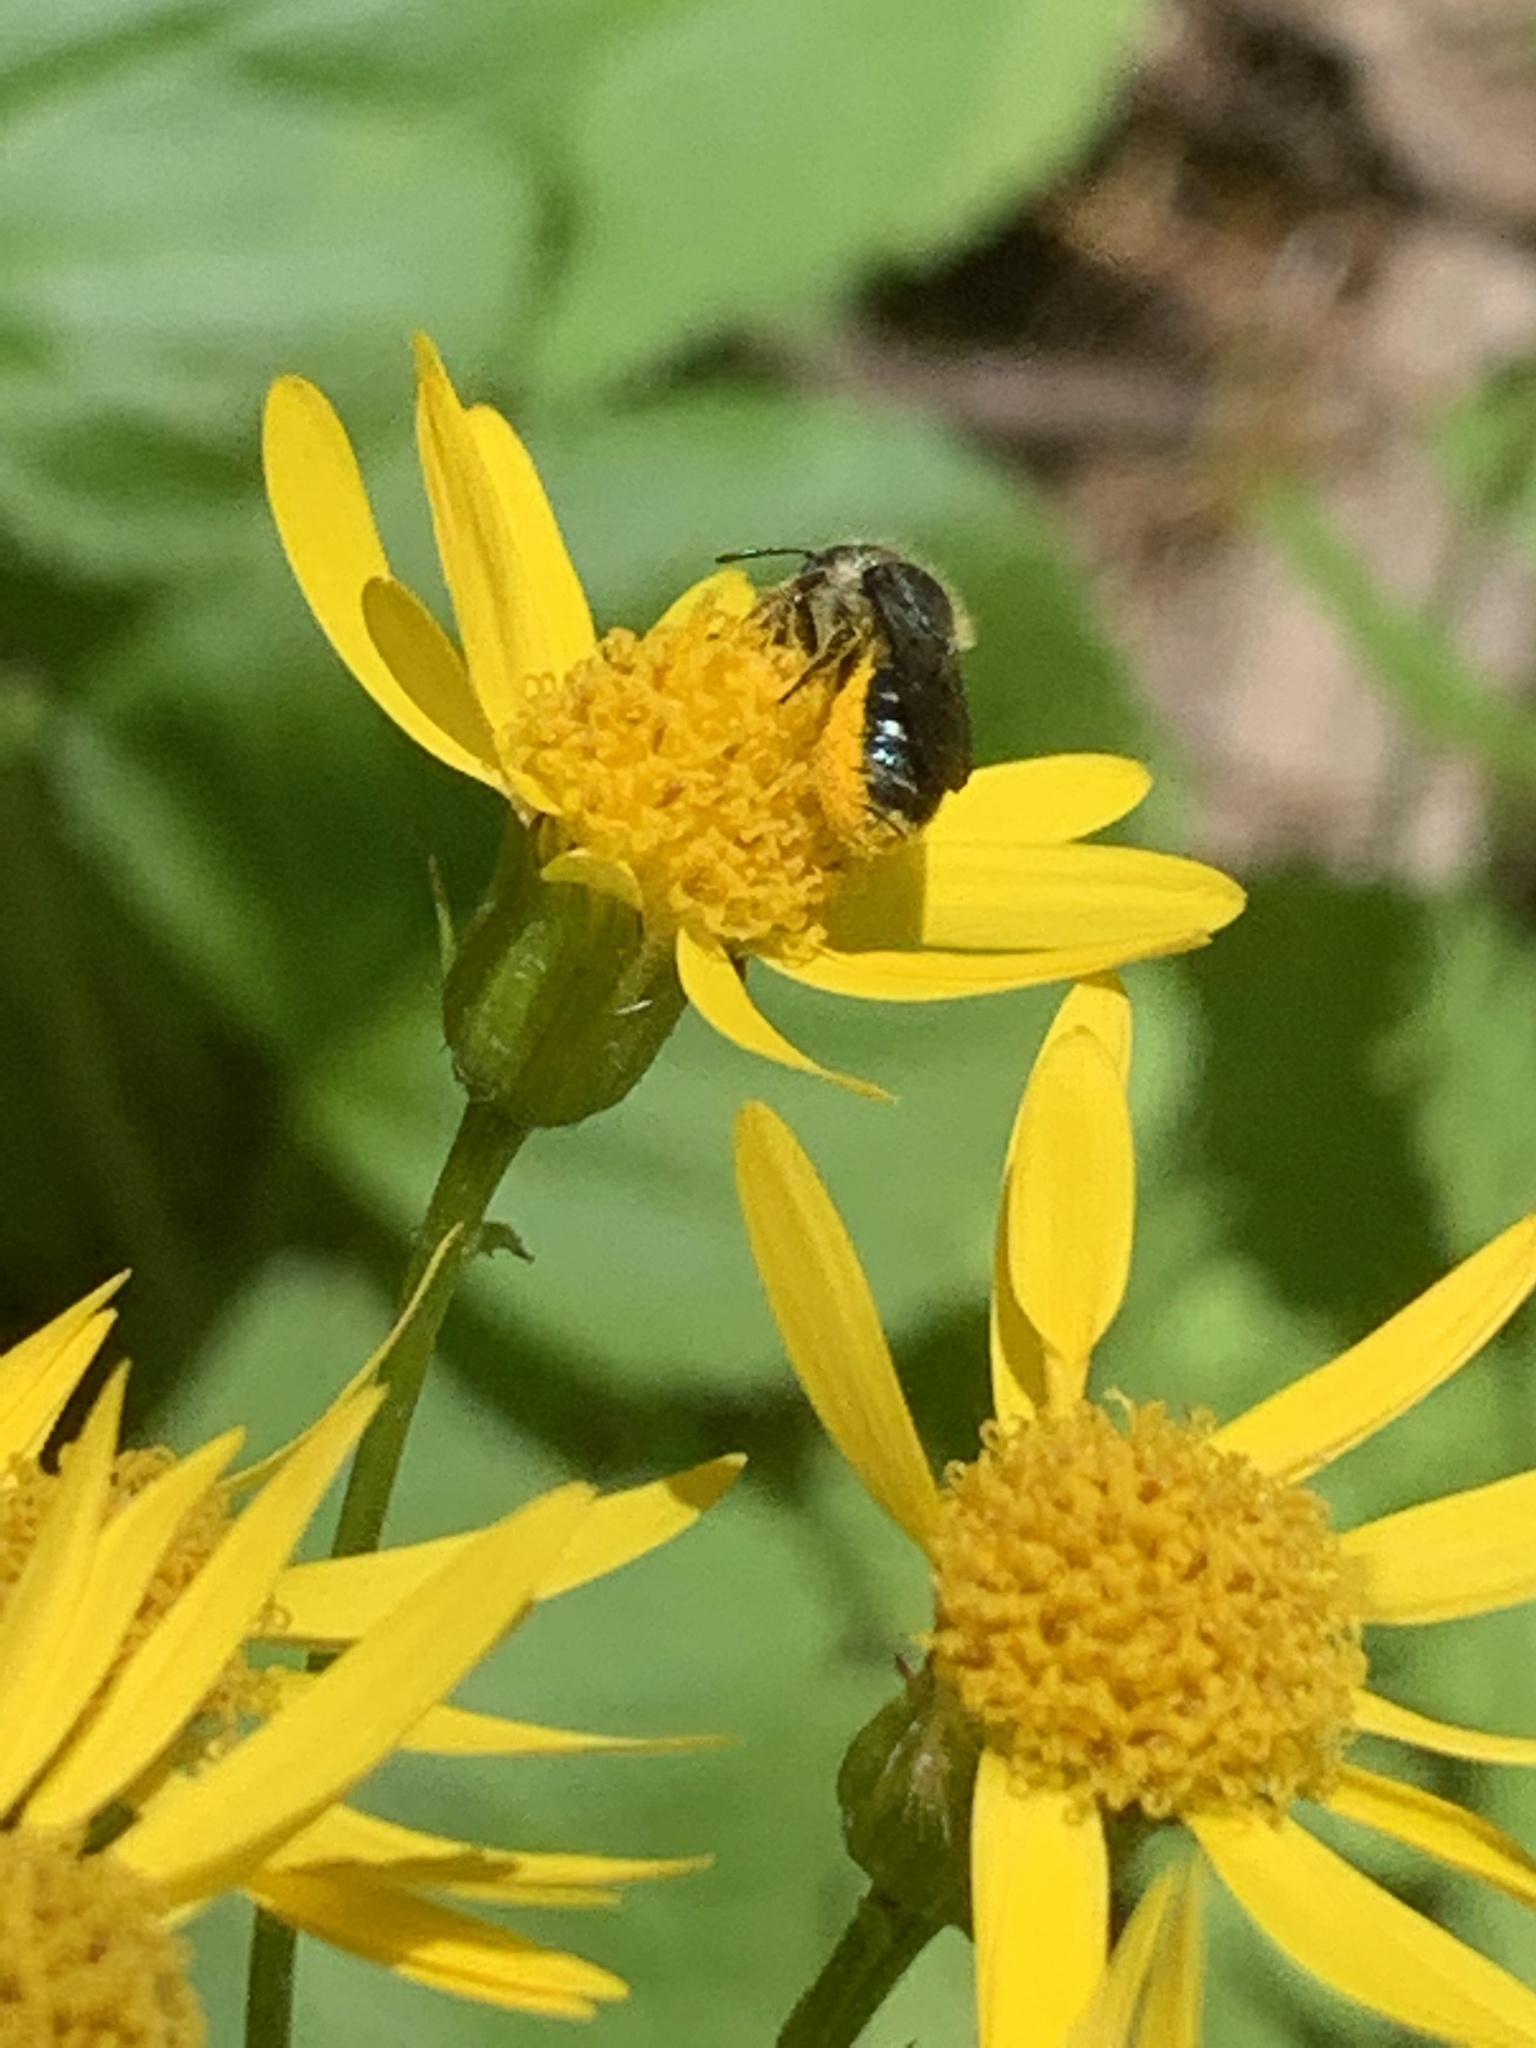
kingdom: Animalia
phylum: Arthropoda
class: Insecta
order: Hymenoptera
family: Megachilidae
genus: Osmia
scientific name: Osmia georgica
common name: Georgia mason
